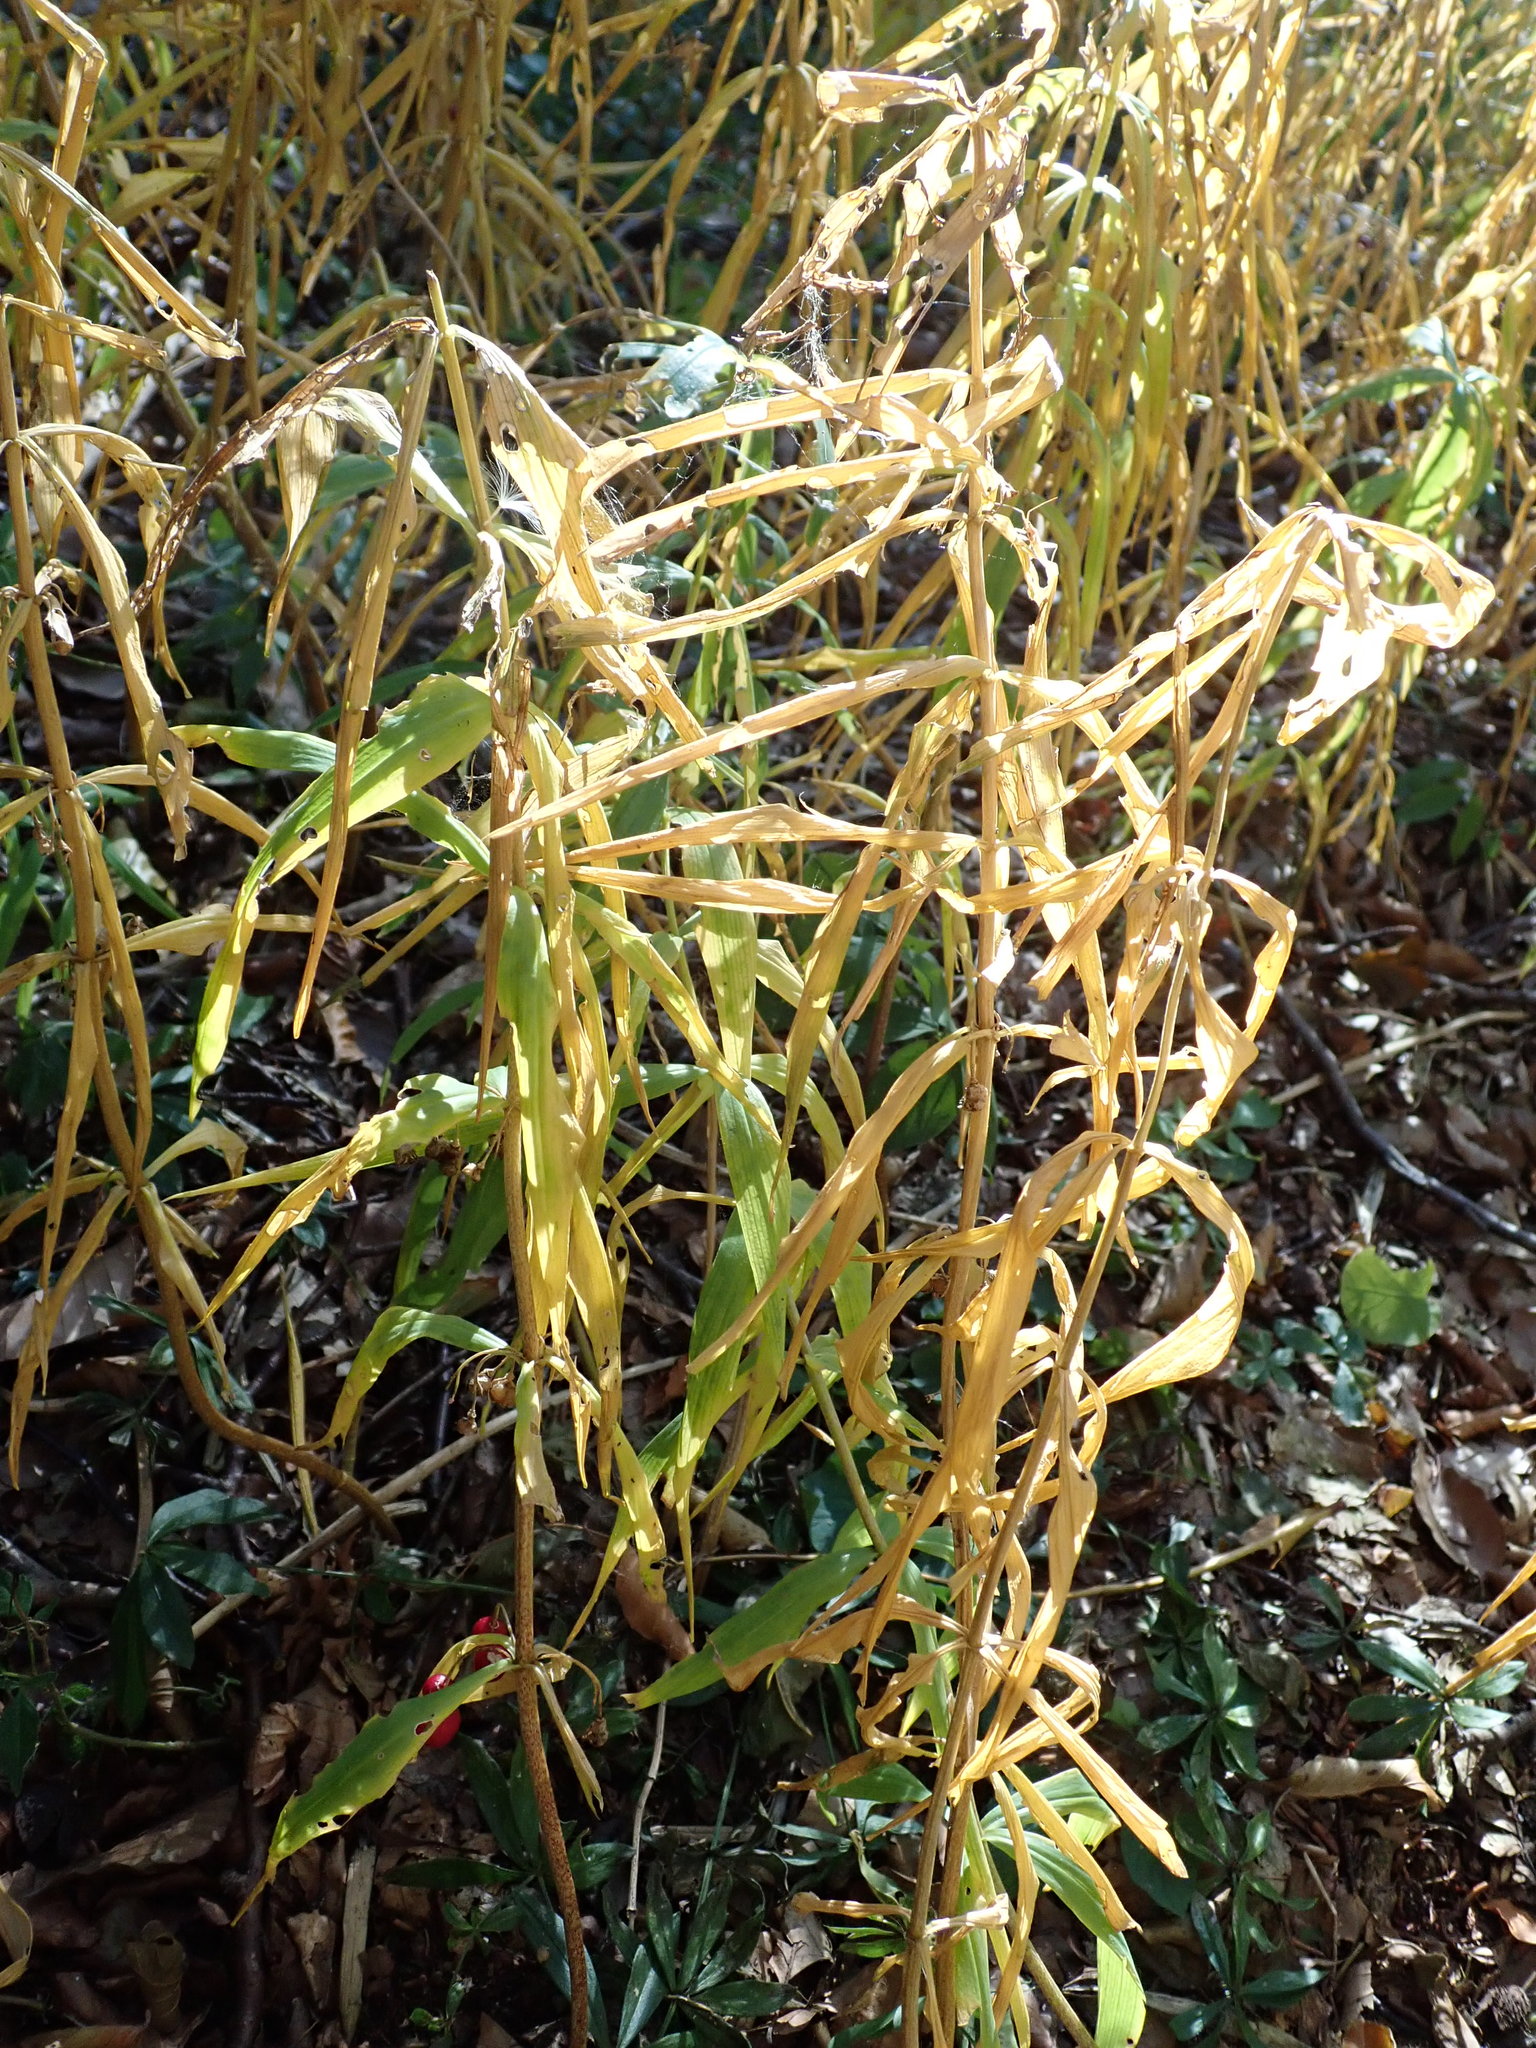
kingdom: Plantae
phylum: Tracheophyta
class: Liliopsida
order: Asparagales
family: Asparagaceae
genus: Polygonatum
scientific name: Polygonatum verticillatum
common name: Whorled solomon's-seal
